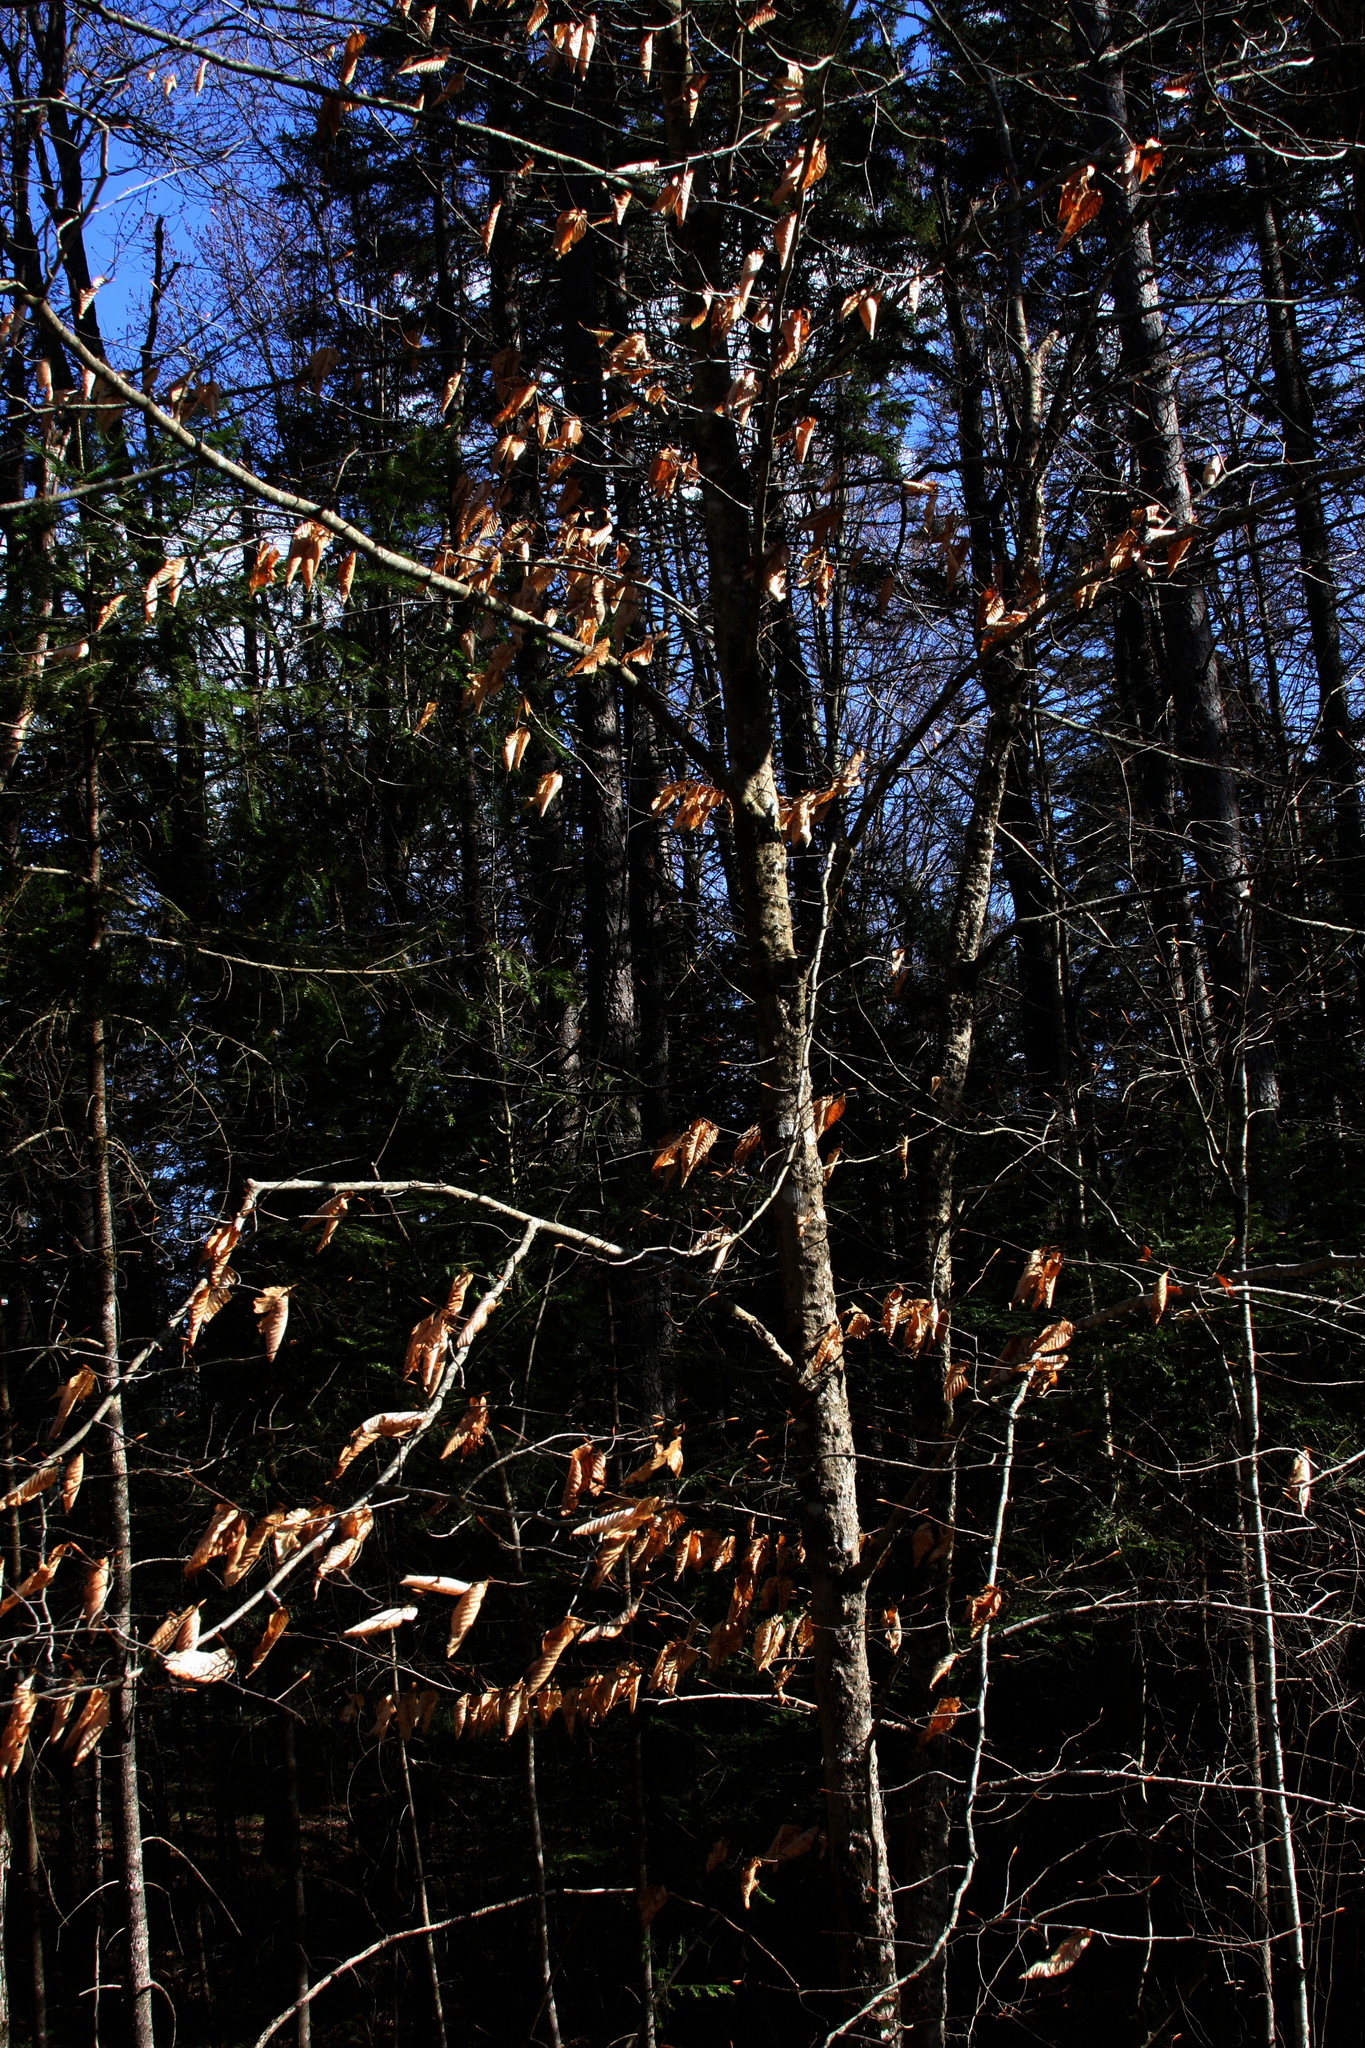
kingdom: Plantae
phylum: Tracheophyta
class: Magnoliopsida
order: Fagales
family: Fagaceae
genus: Fagus
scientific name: Fagus grandifolia
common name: American beech
